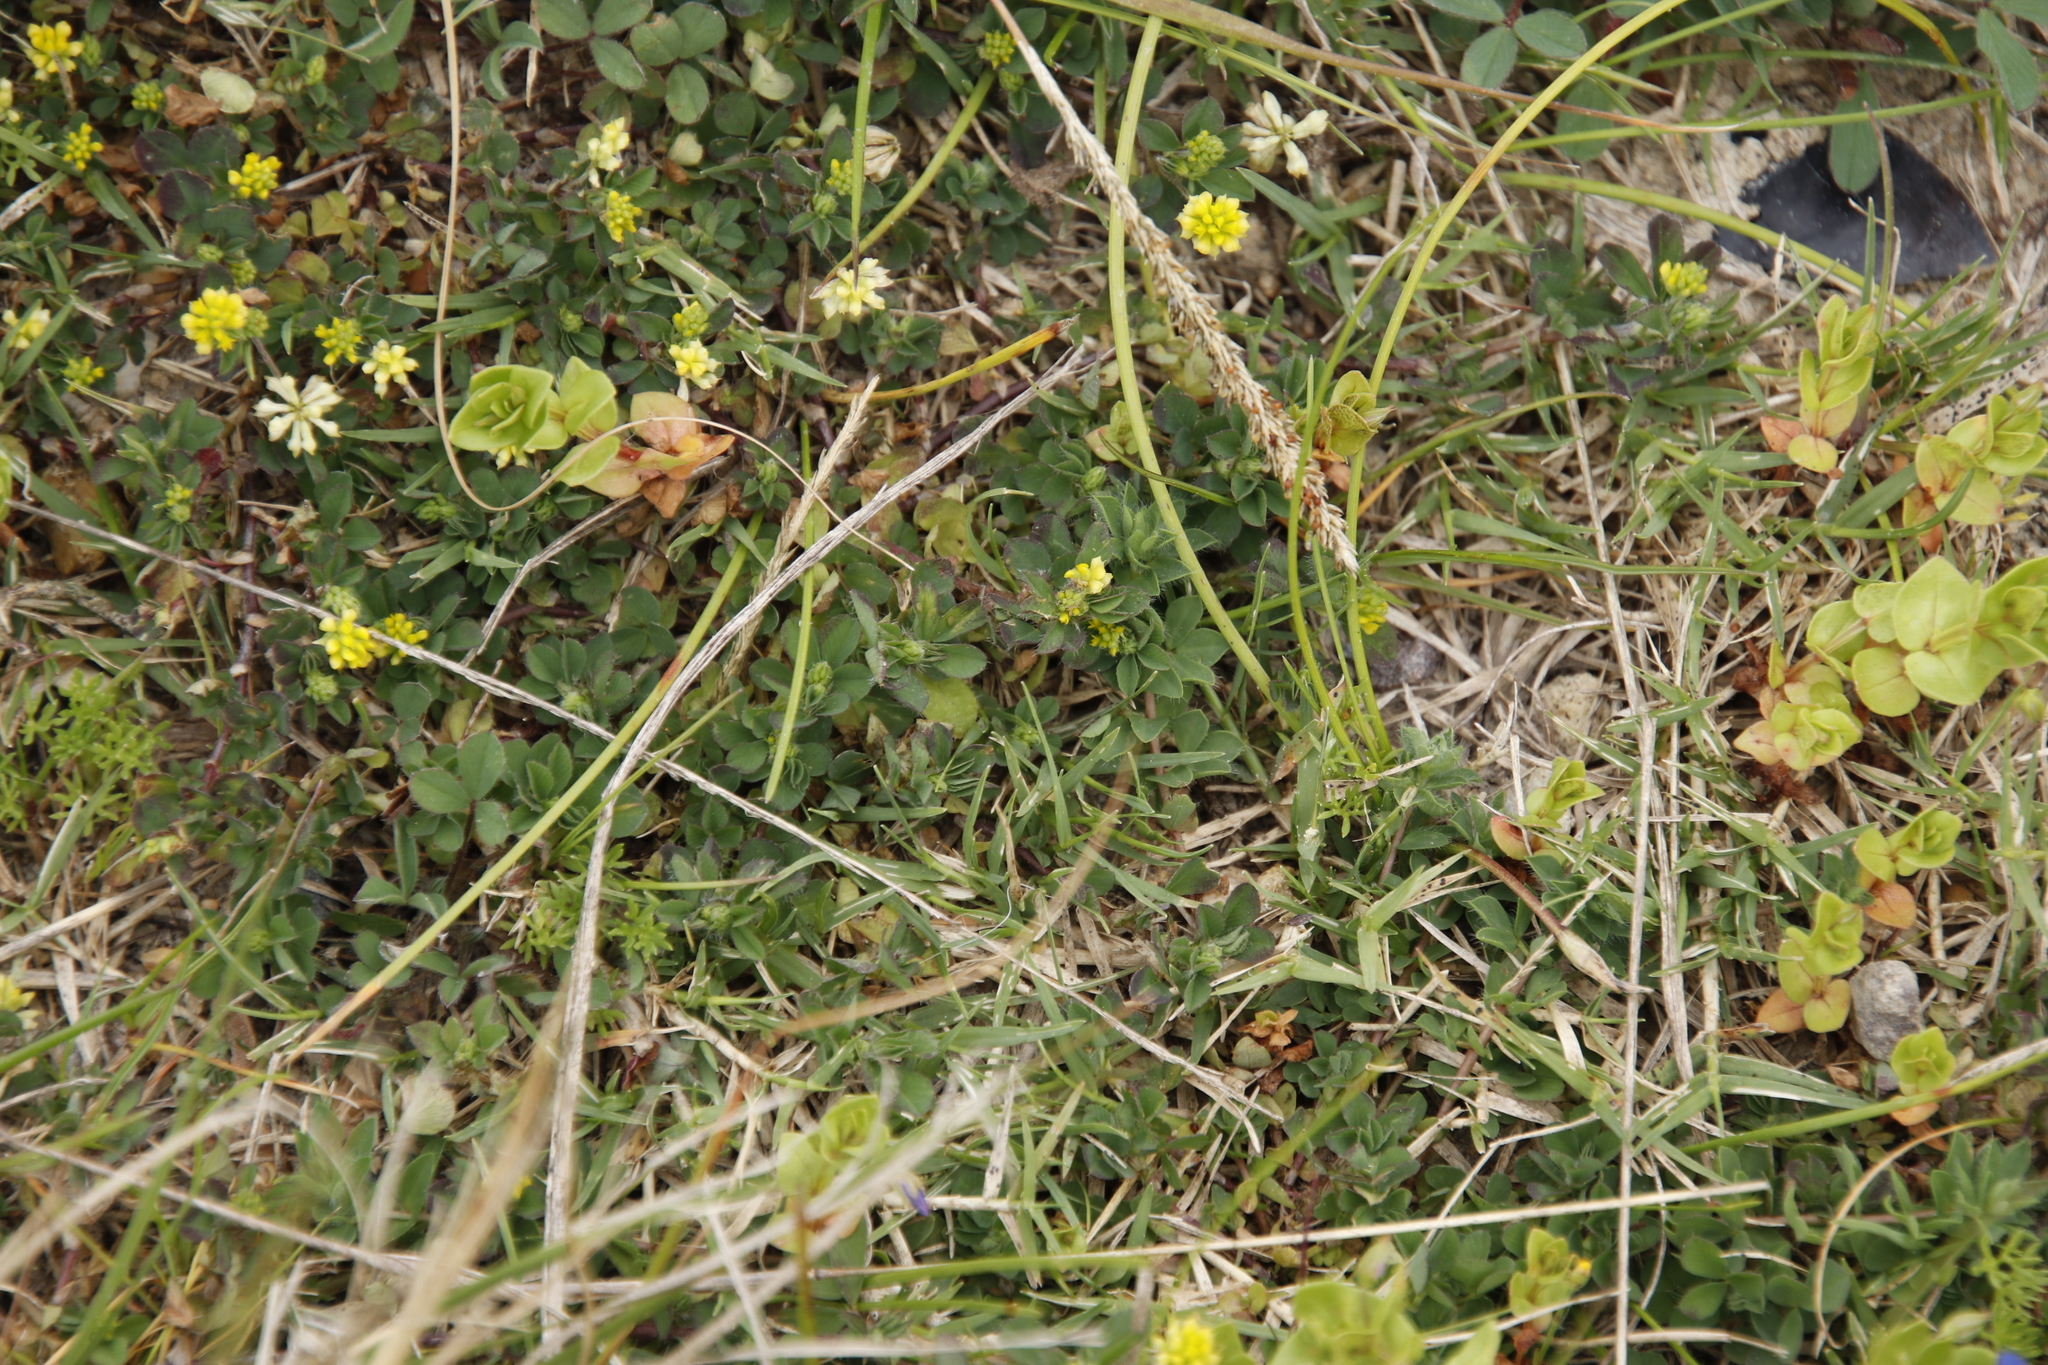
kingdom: Plantae
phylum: Tracheophyta
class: Magnoliopsida
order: Fabales
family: Fabaceae
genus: Trifolium
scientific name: Trifolium dubium
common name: Suckling clover
